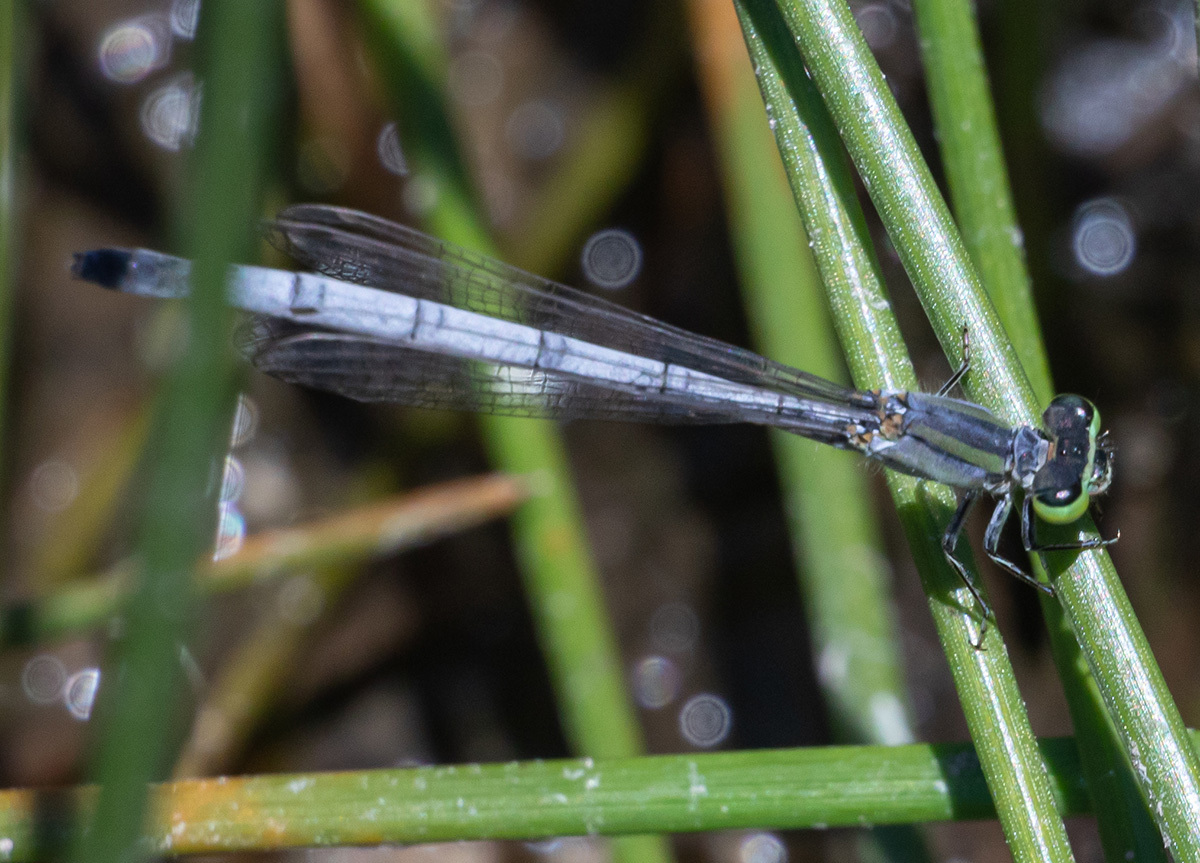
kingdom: Animalia
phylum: Arthropoda
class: Insecta
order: Odonata
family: Coenagrionidae
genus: Ischnura
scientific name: Ischnura perparva
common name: Western forktail
